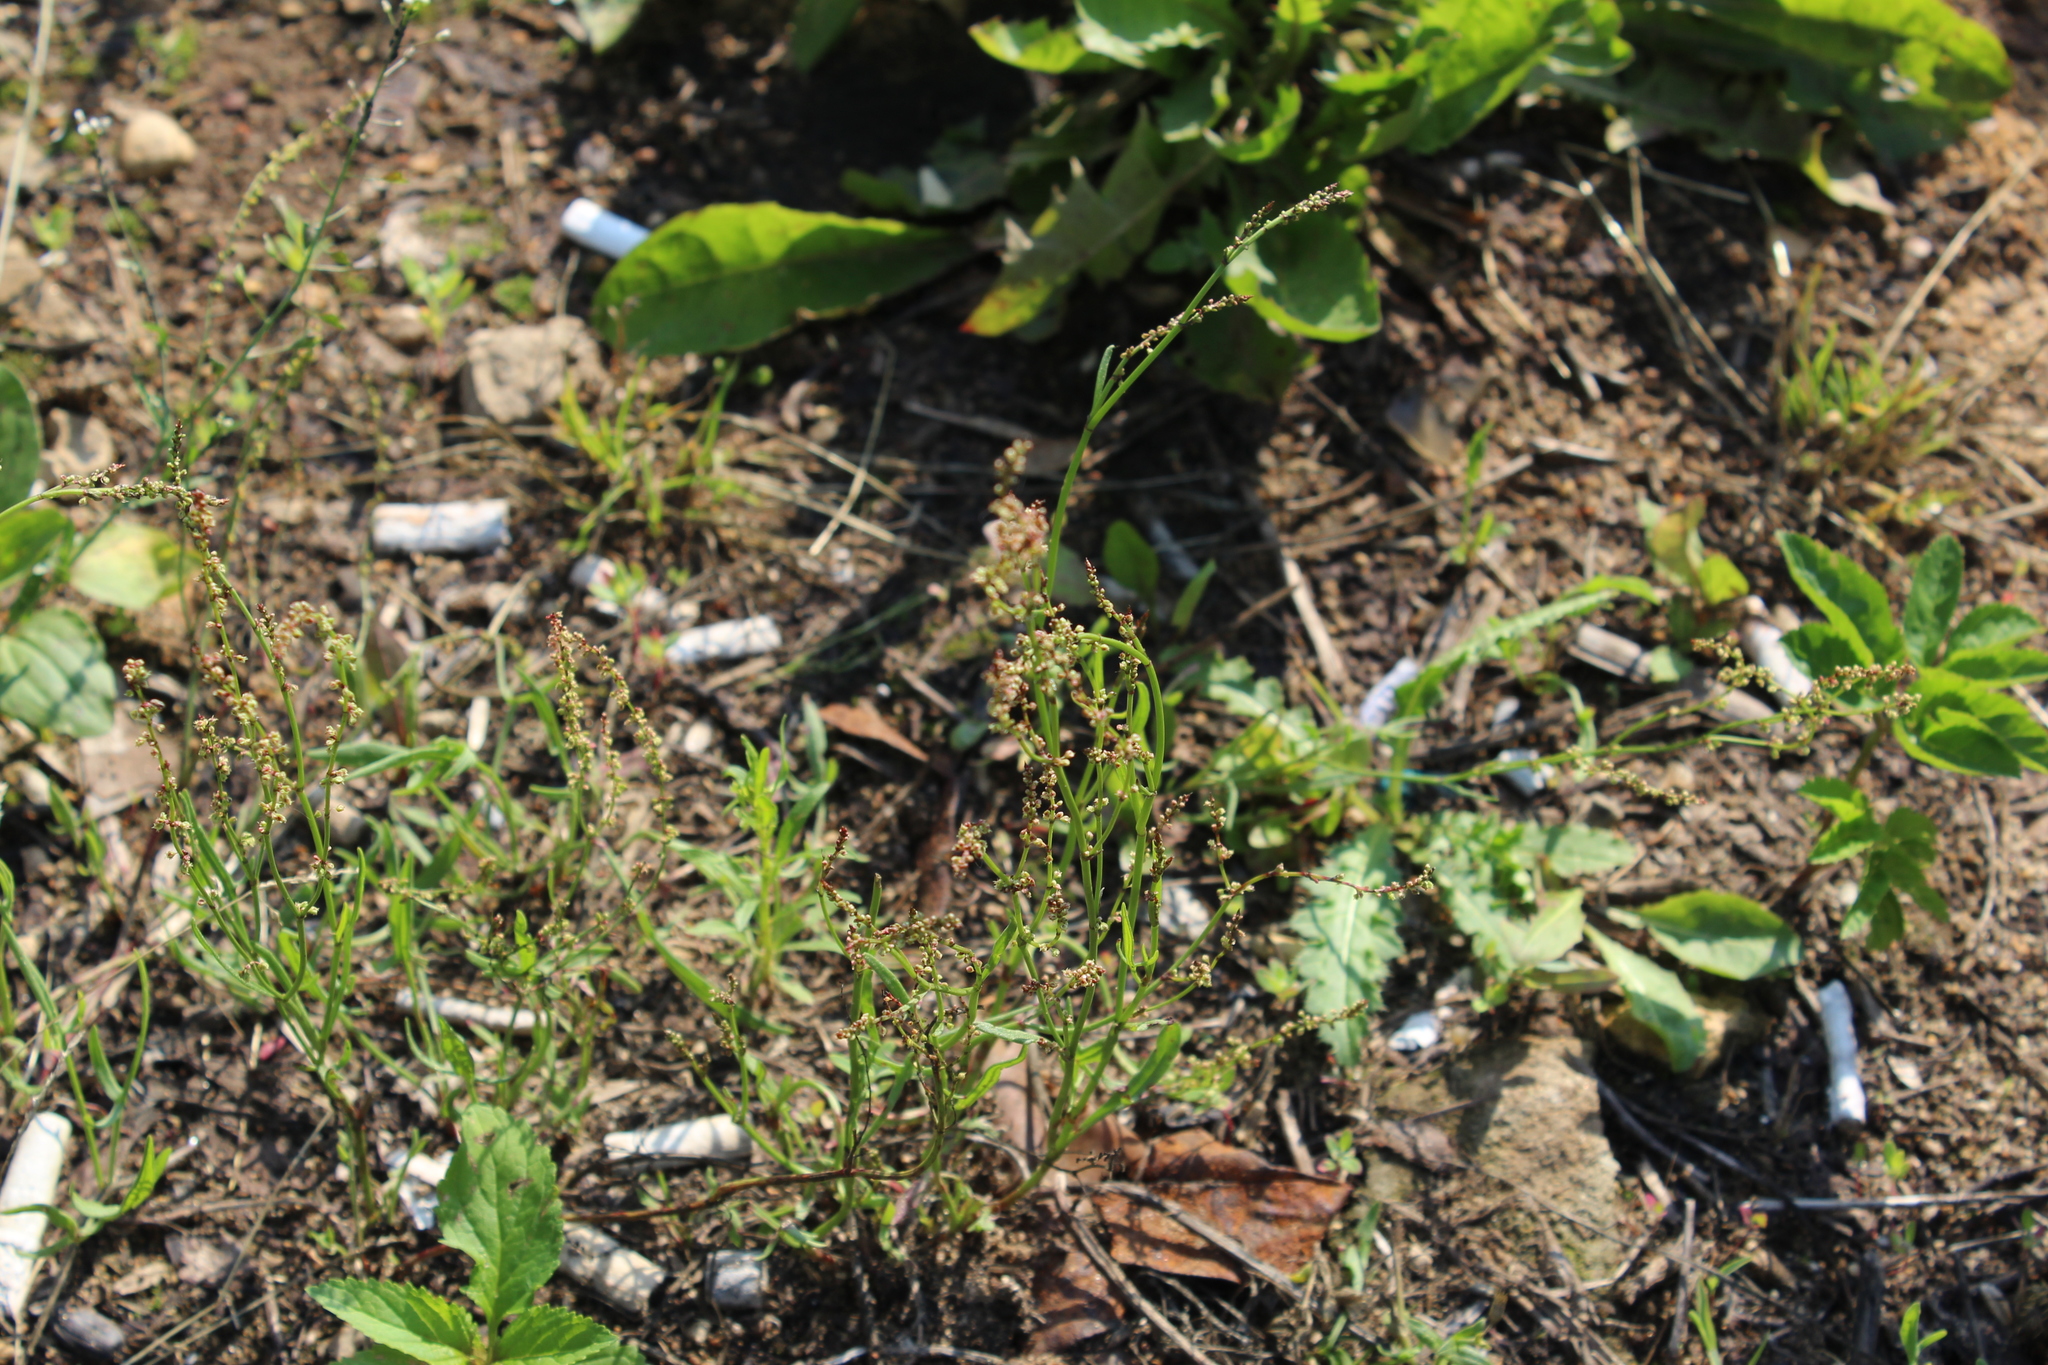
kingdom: Plantae
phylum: Tracheophyta
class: Magnoliopsida
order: Caryophyllales
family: Polygonaceae
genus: Rumex
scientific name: Rumex acetosella
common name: Common sheep sorrel
